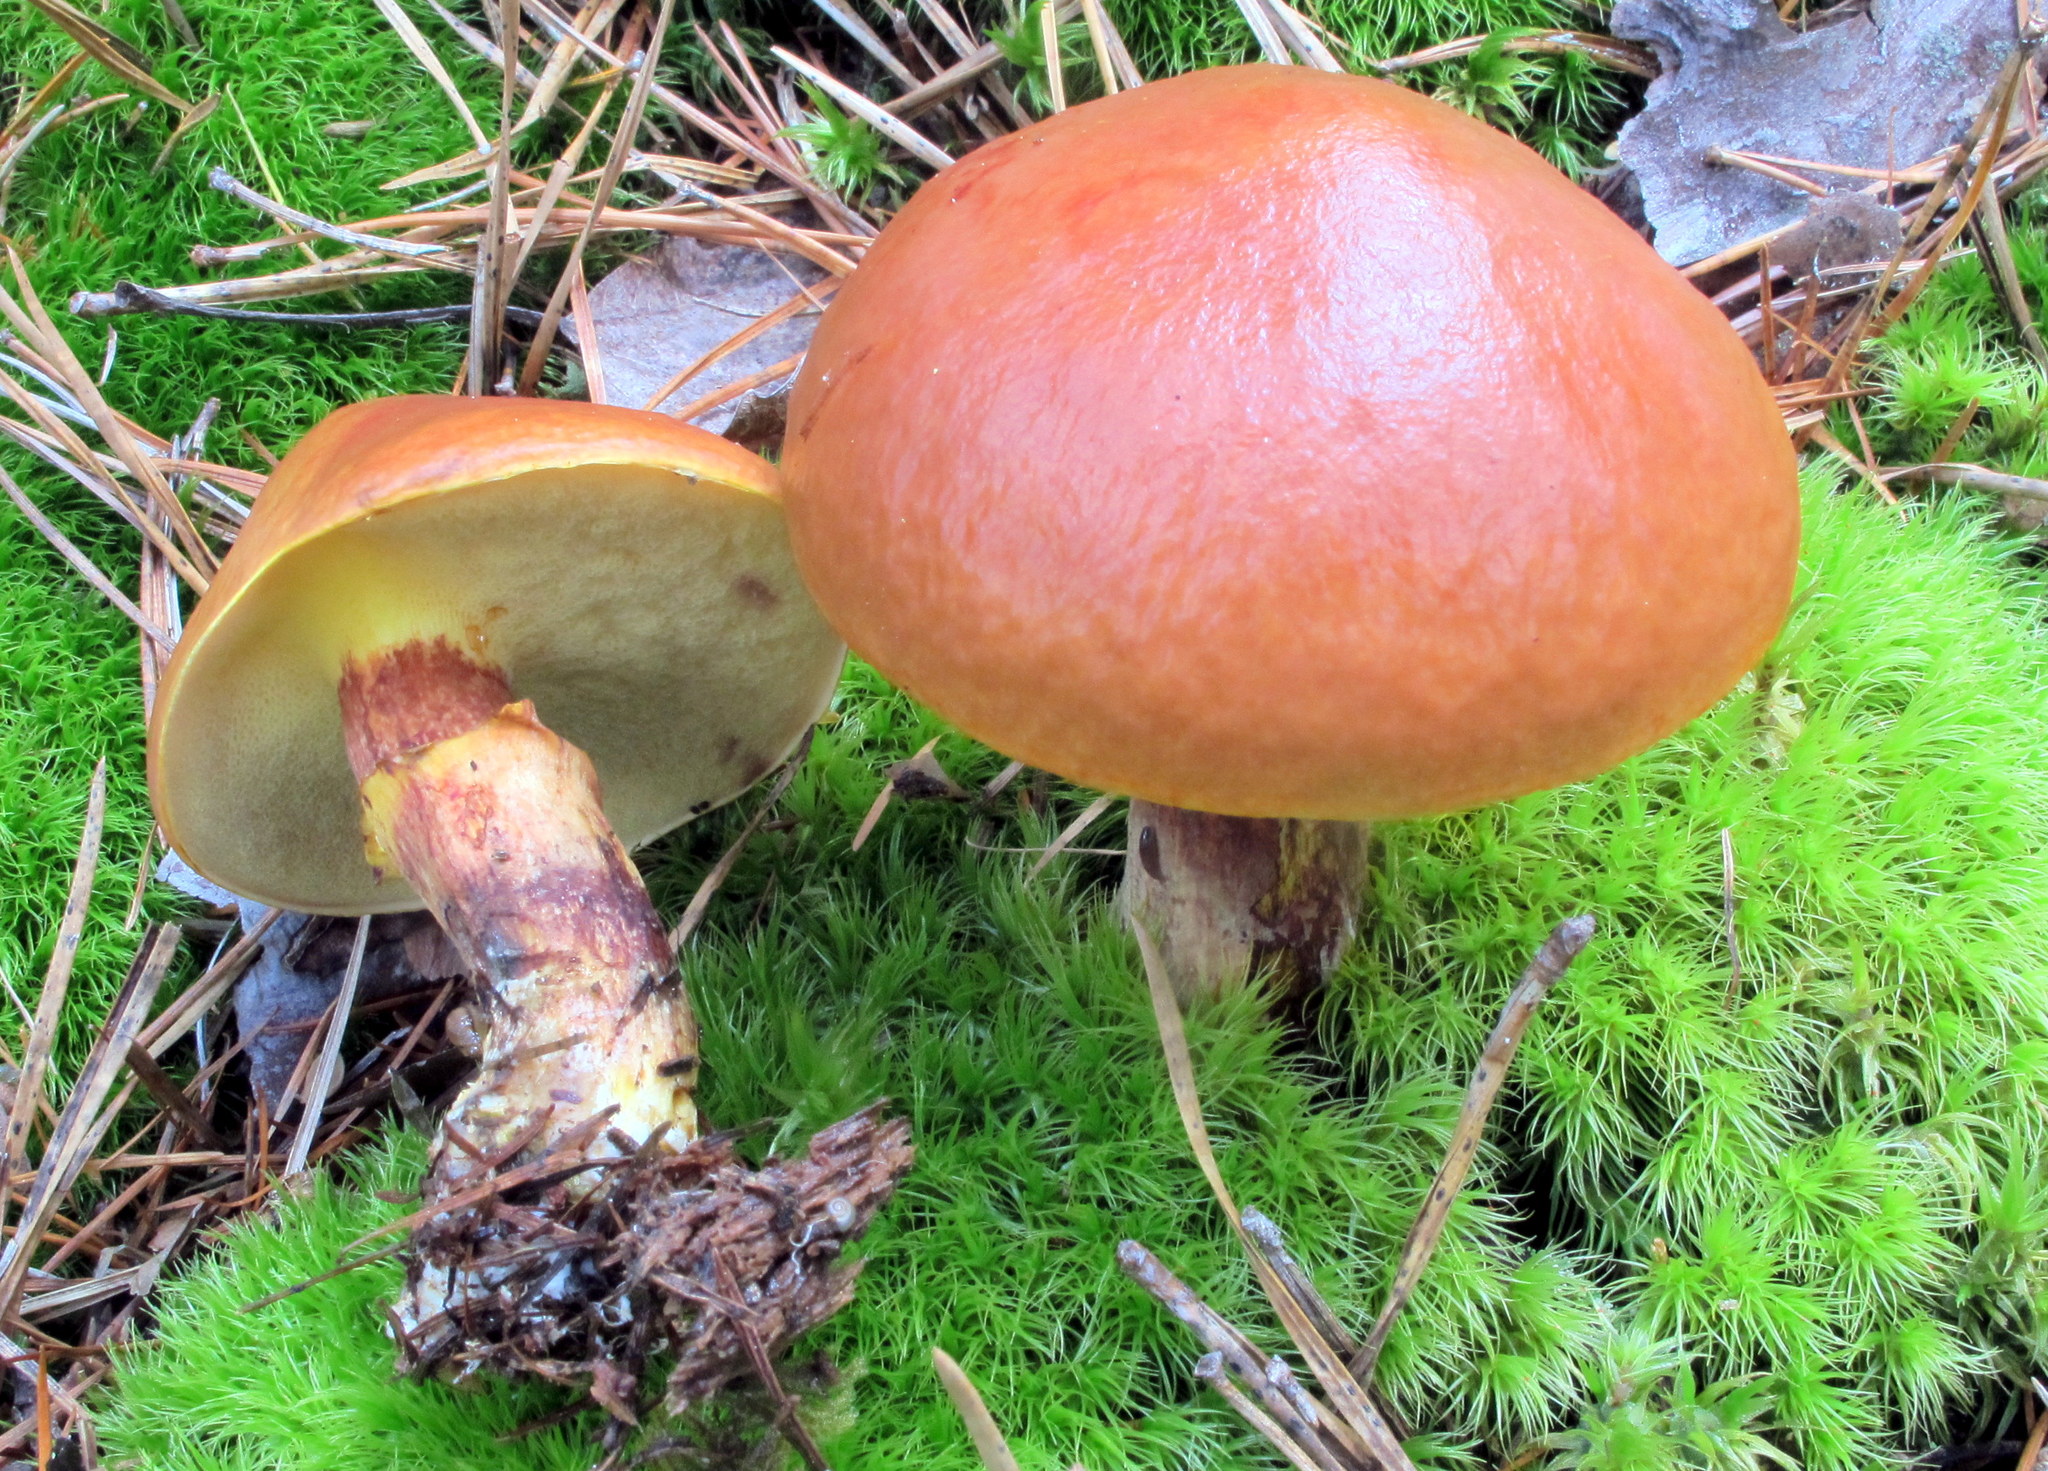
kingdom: Fungi
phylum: Basidiomycota
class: Agaricomycetes
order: Boletales
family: Suillaceae
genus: Suillus
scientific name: Suillus grevillei
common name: Larch bolete
